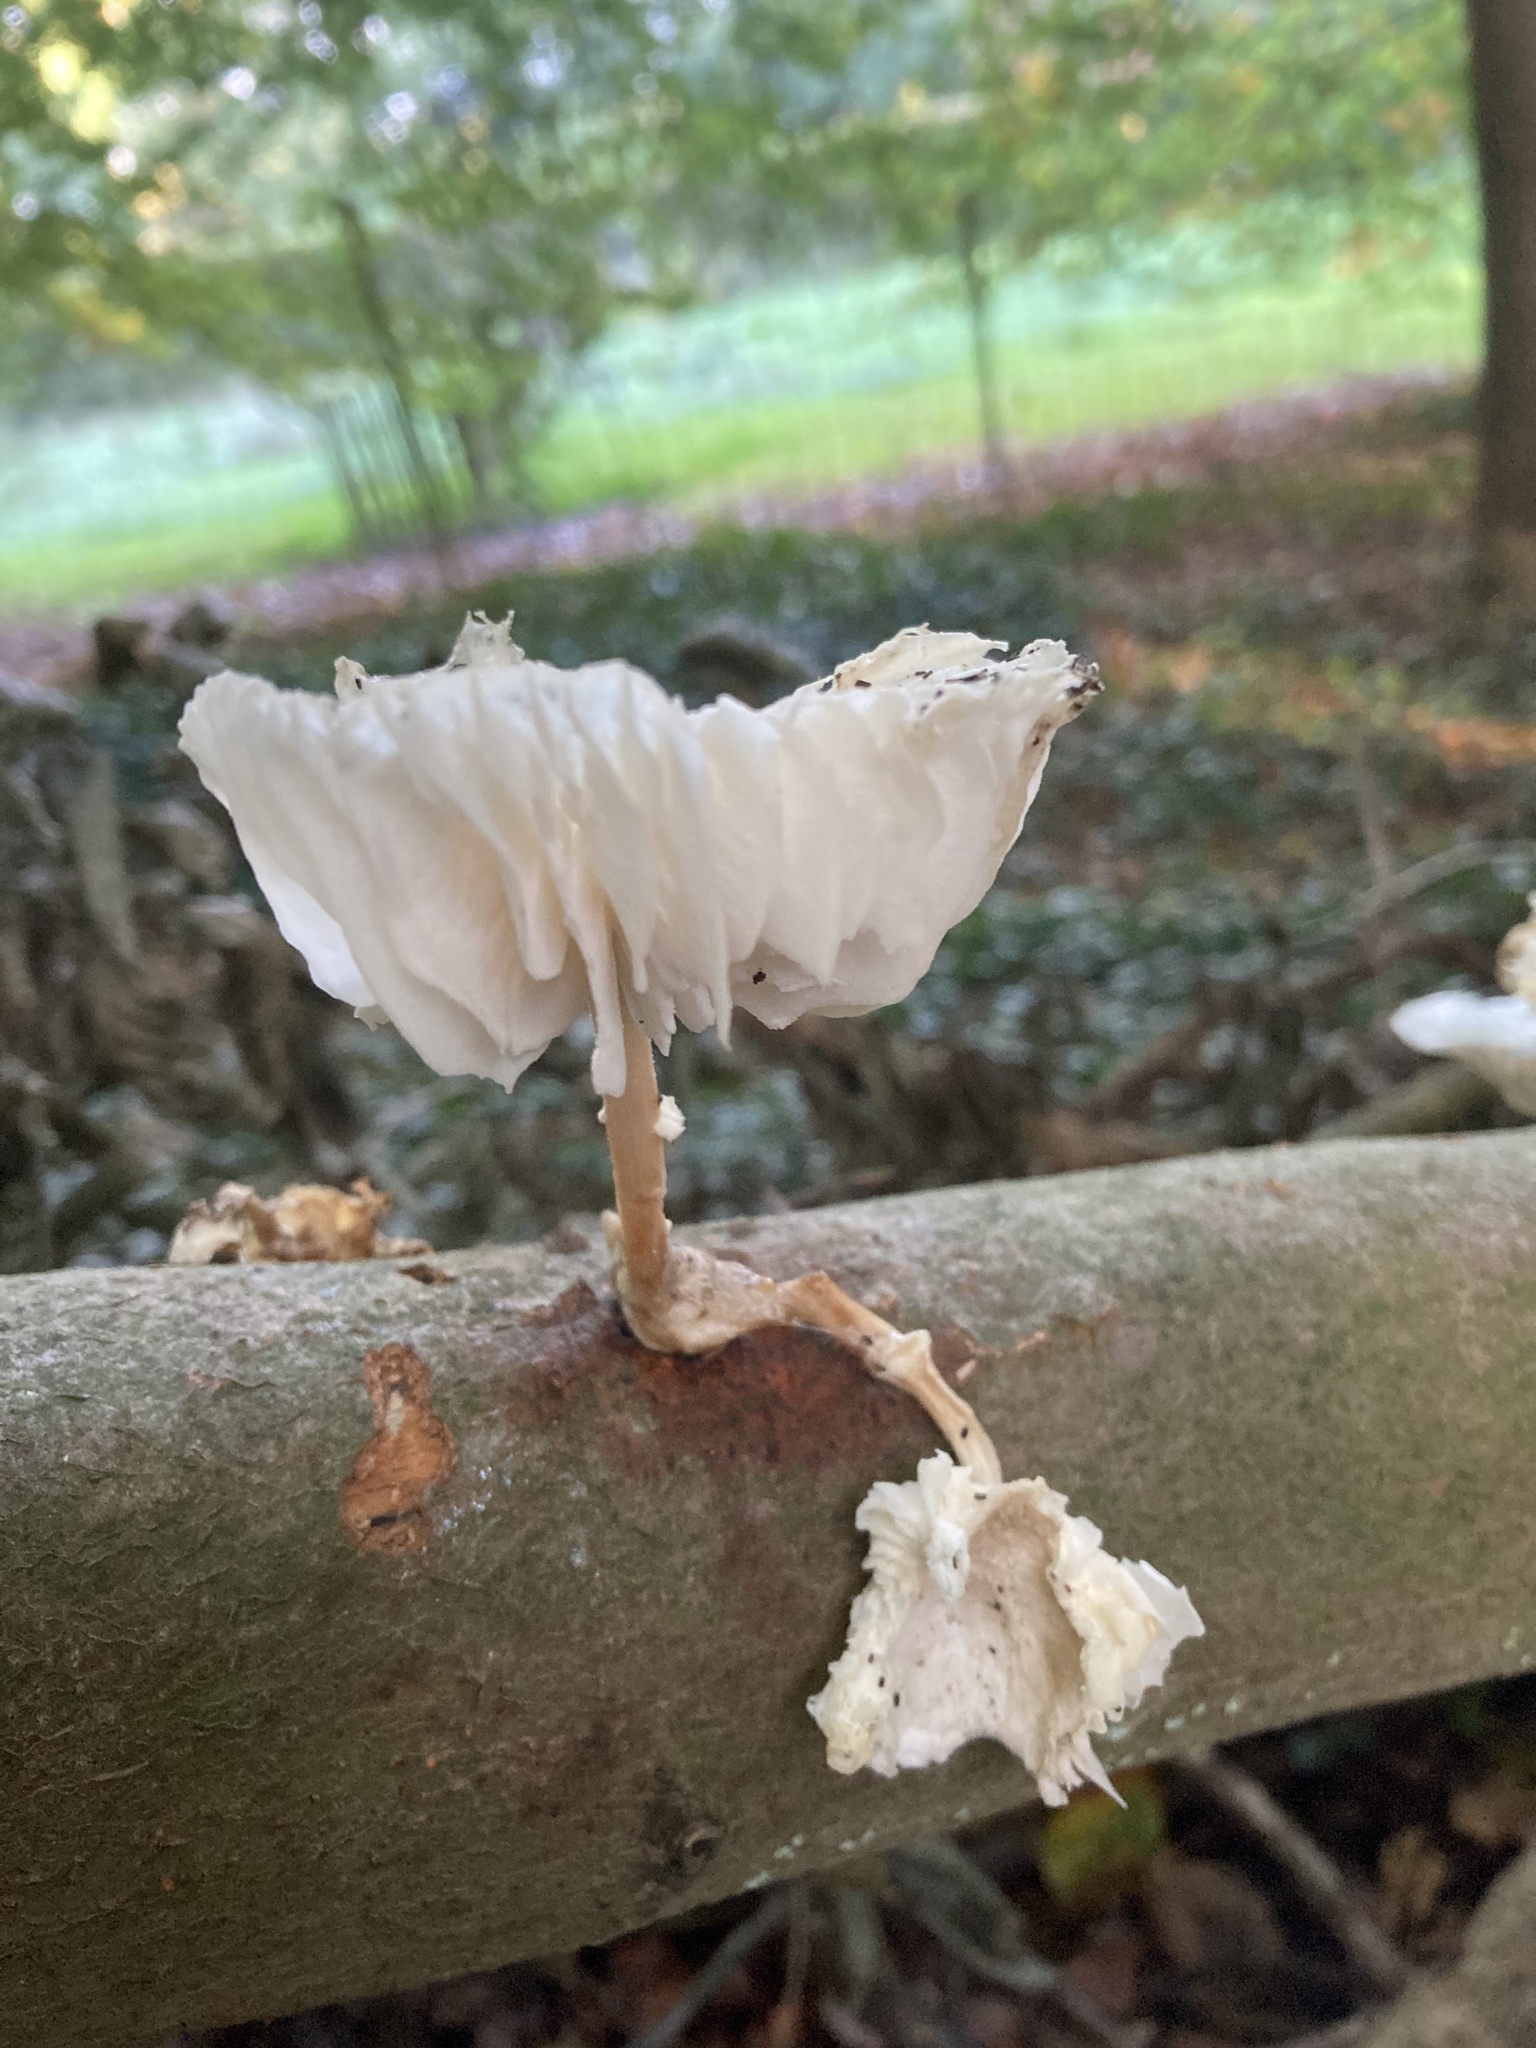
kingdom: Fungi
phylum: Basidiomycota
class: Agaricomycetes
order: Agaricales
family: Physalacriaceae
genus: Mucidula
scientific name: Mucidula mucida
